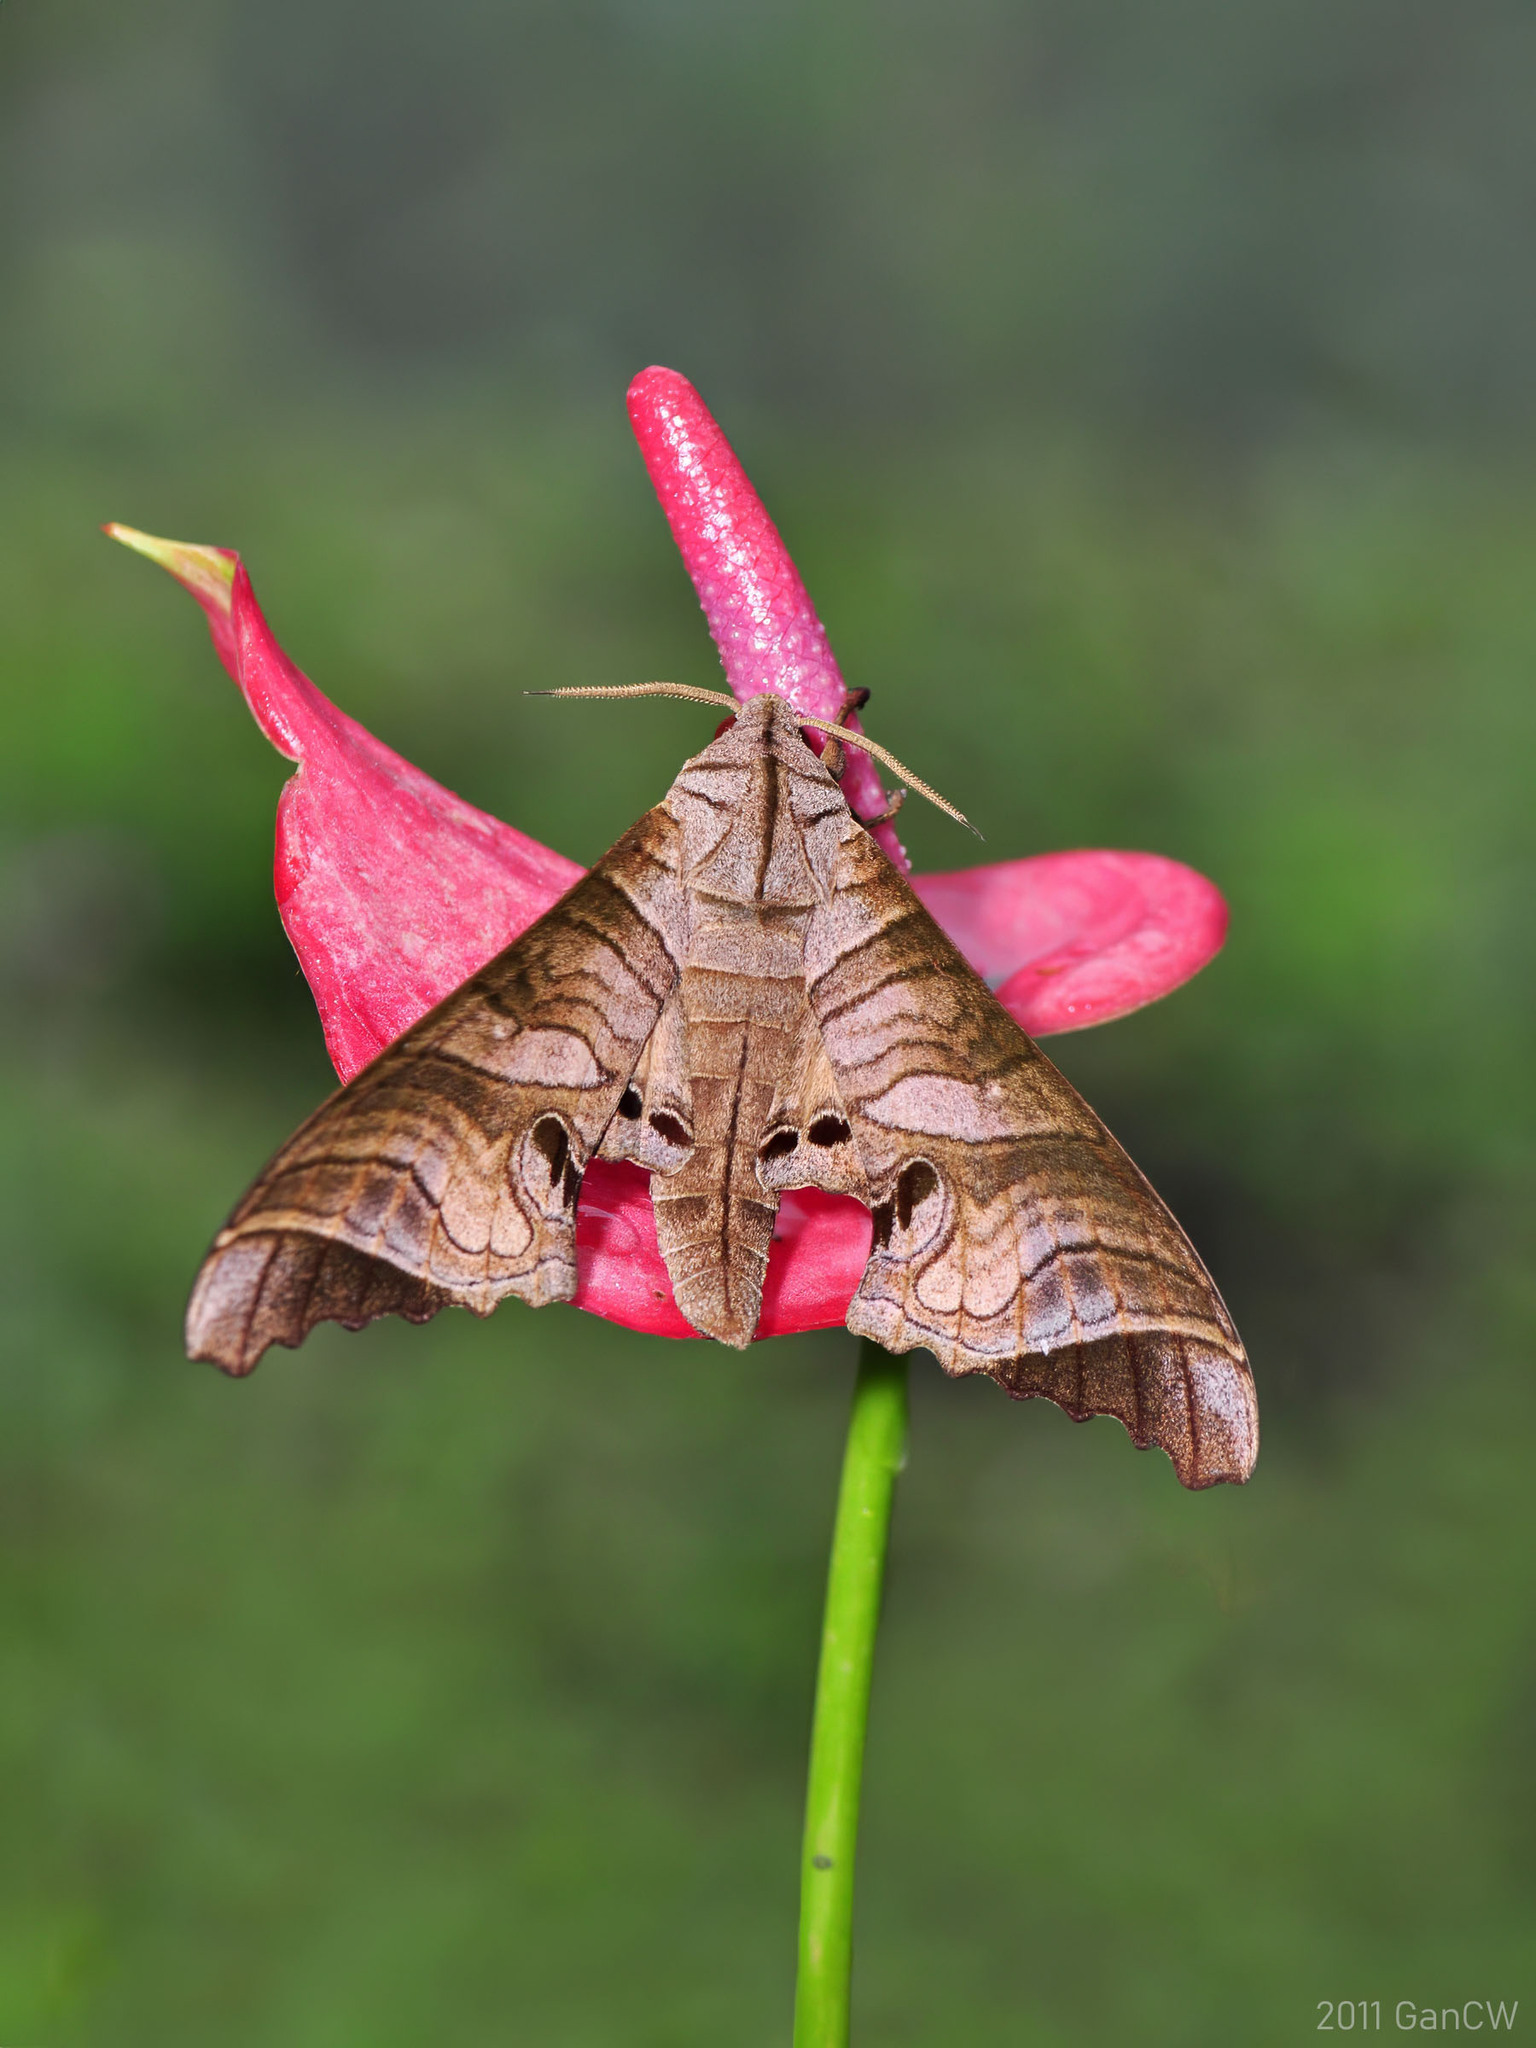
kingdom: Animalia
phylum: Arthropoda
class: Insecta
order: Lepidoptera
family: Sphingidae
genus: Marumba
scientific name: Marumba spectabilis
